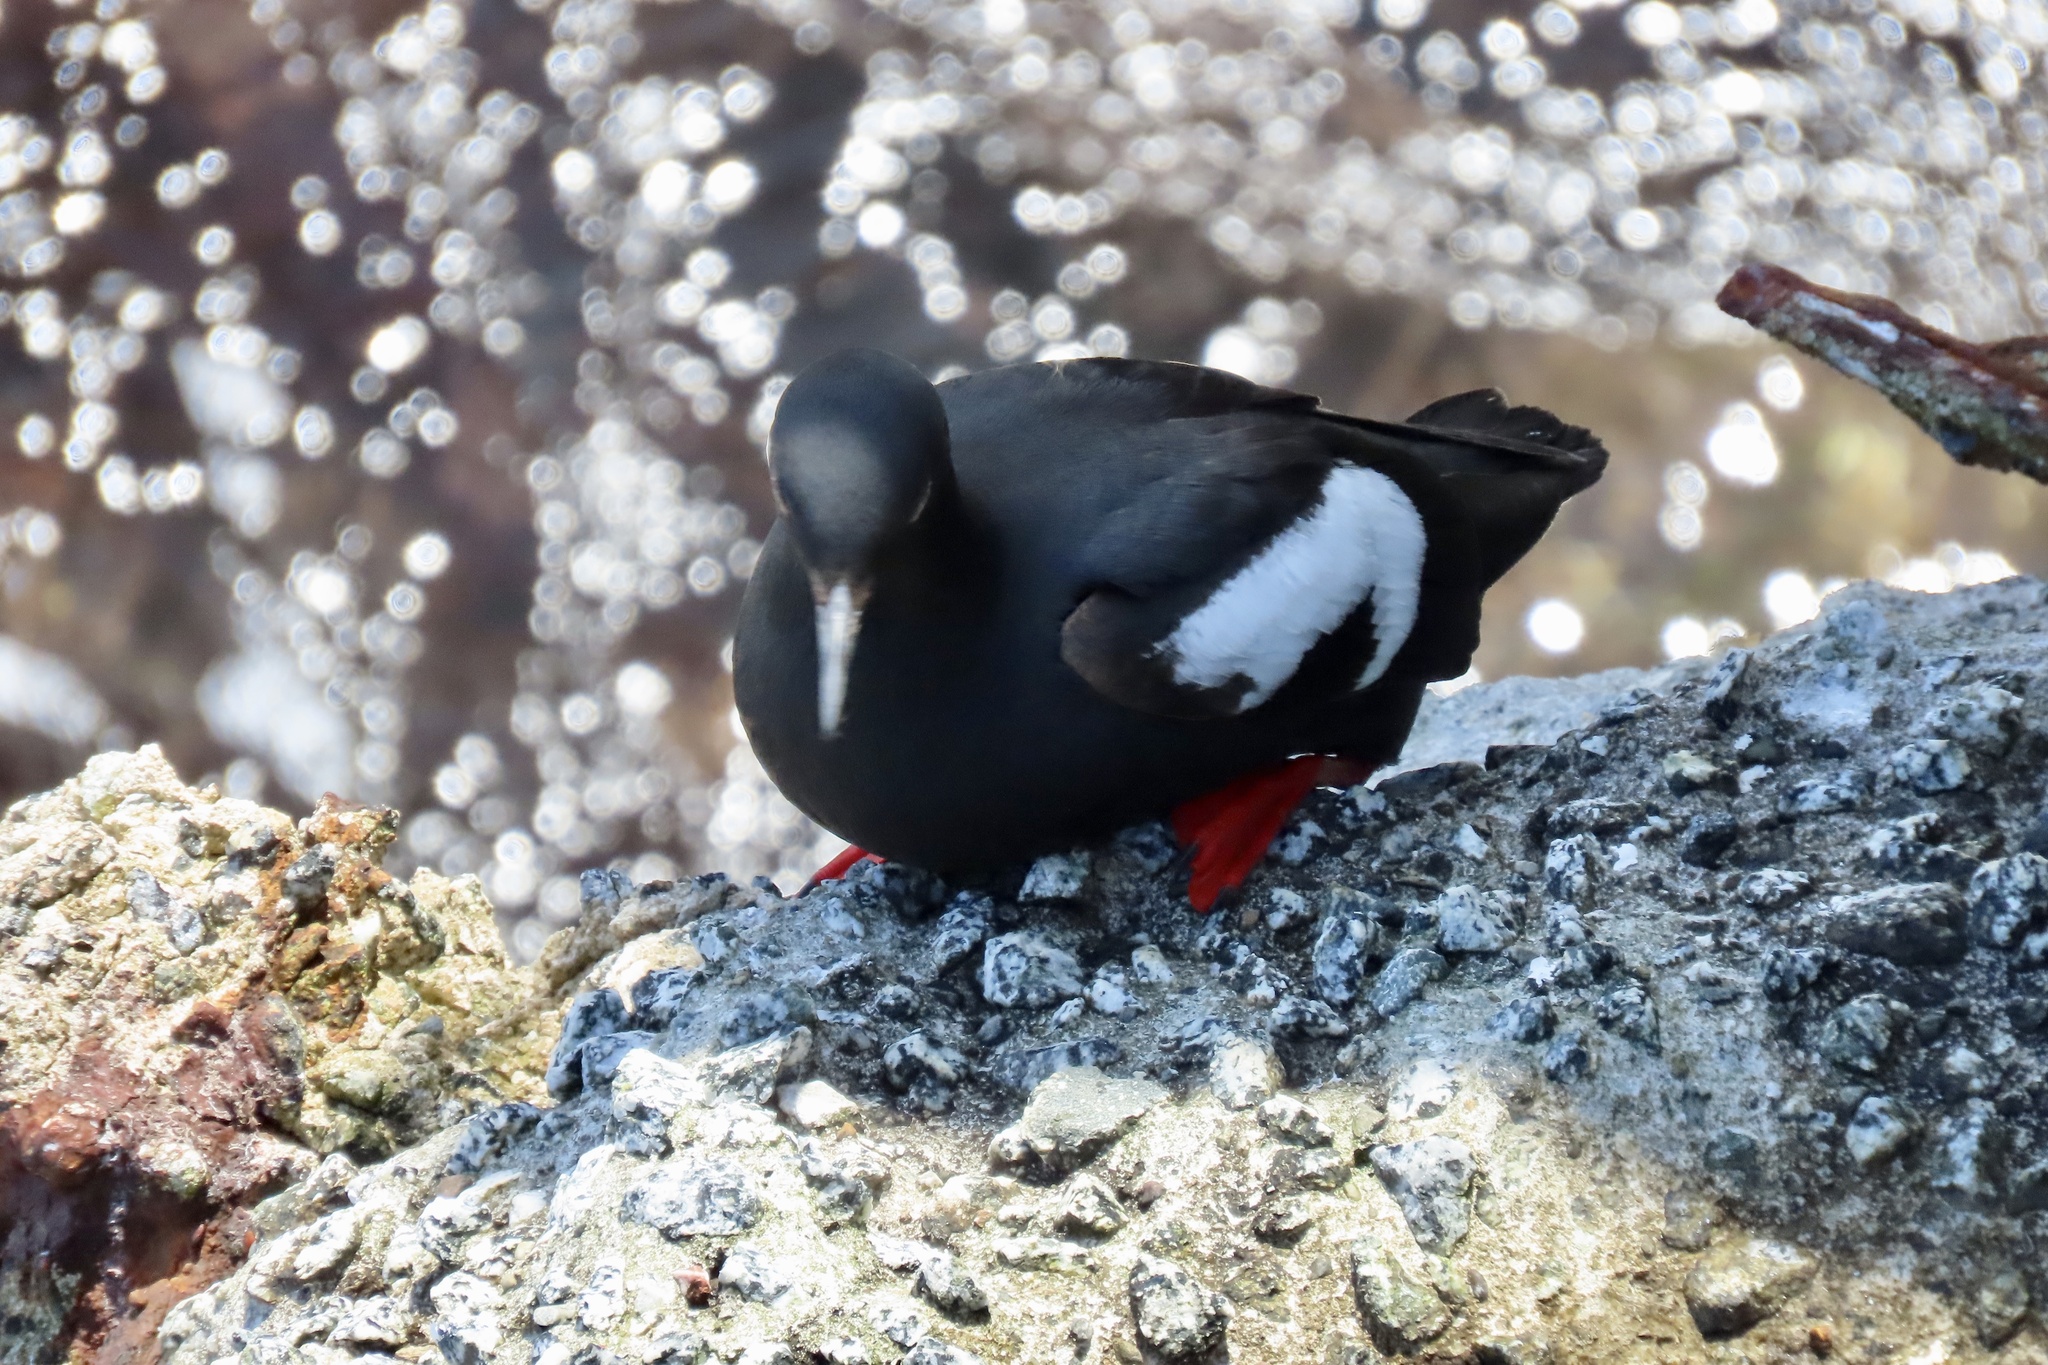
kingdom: Animalia
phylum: Chordata
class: Aves
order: Charadriiformes
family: Alcidae
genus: Cepphus
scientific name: Cepphus columba
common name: Pigeon guillemot
